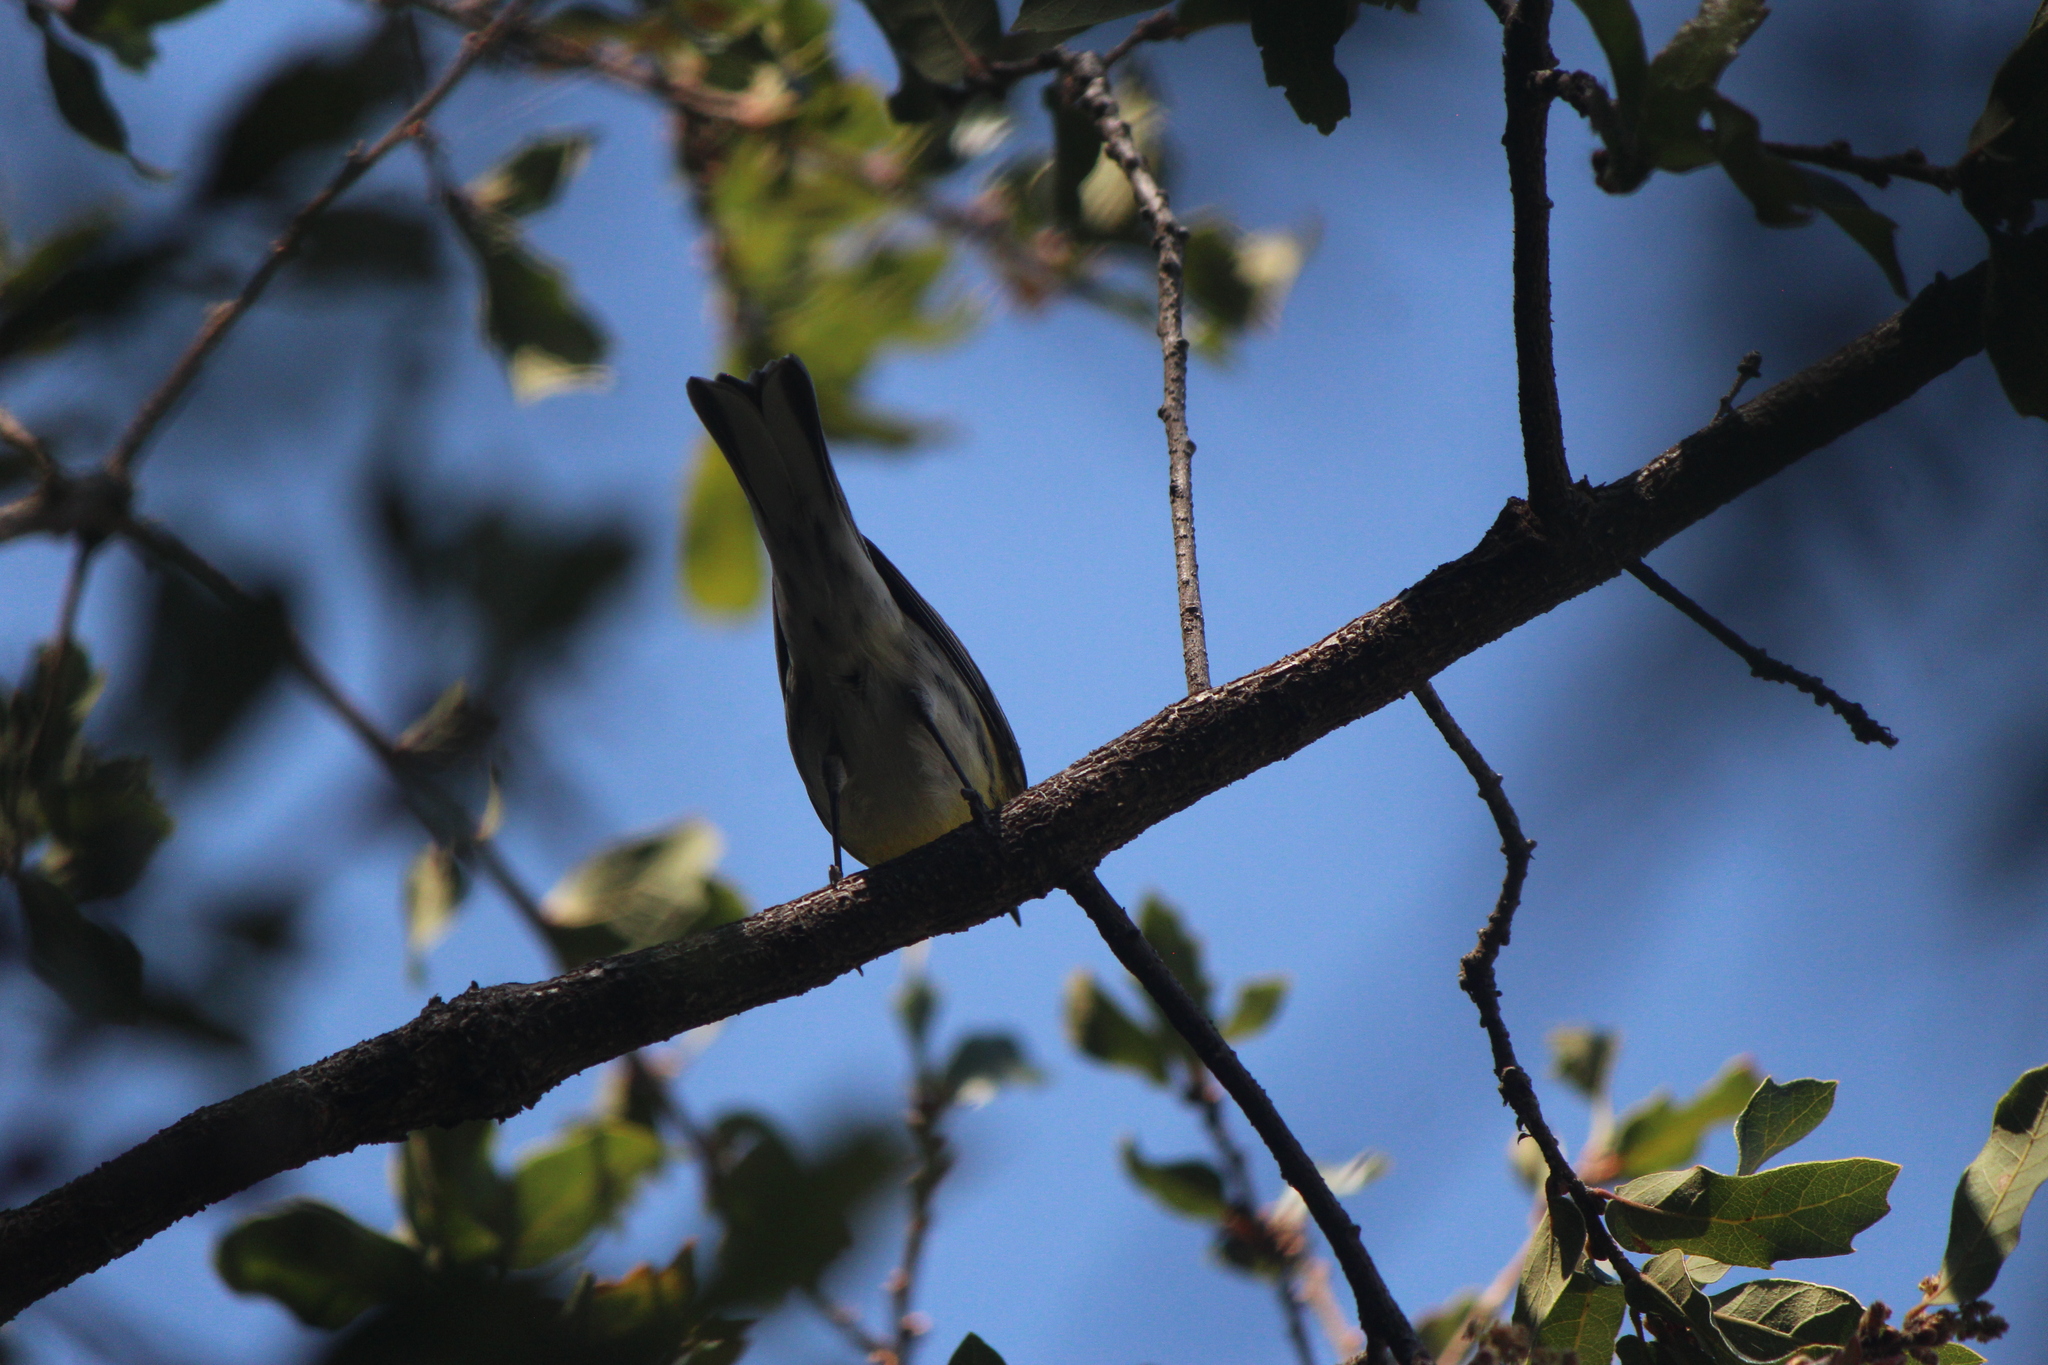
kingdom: Animalia
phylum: Chordata
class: Aves
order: Passeriformes
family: Parulidae
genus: Setophaga
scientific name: Setophaga townsendi
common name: Townsend's warbler
